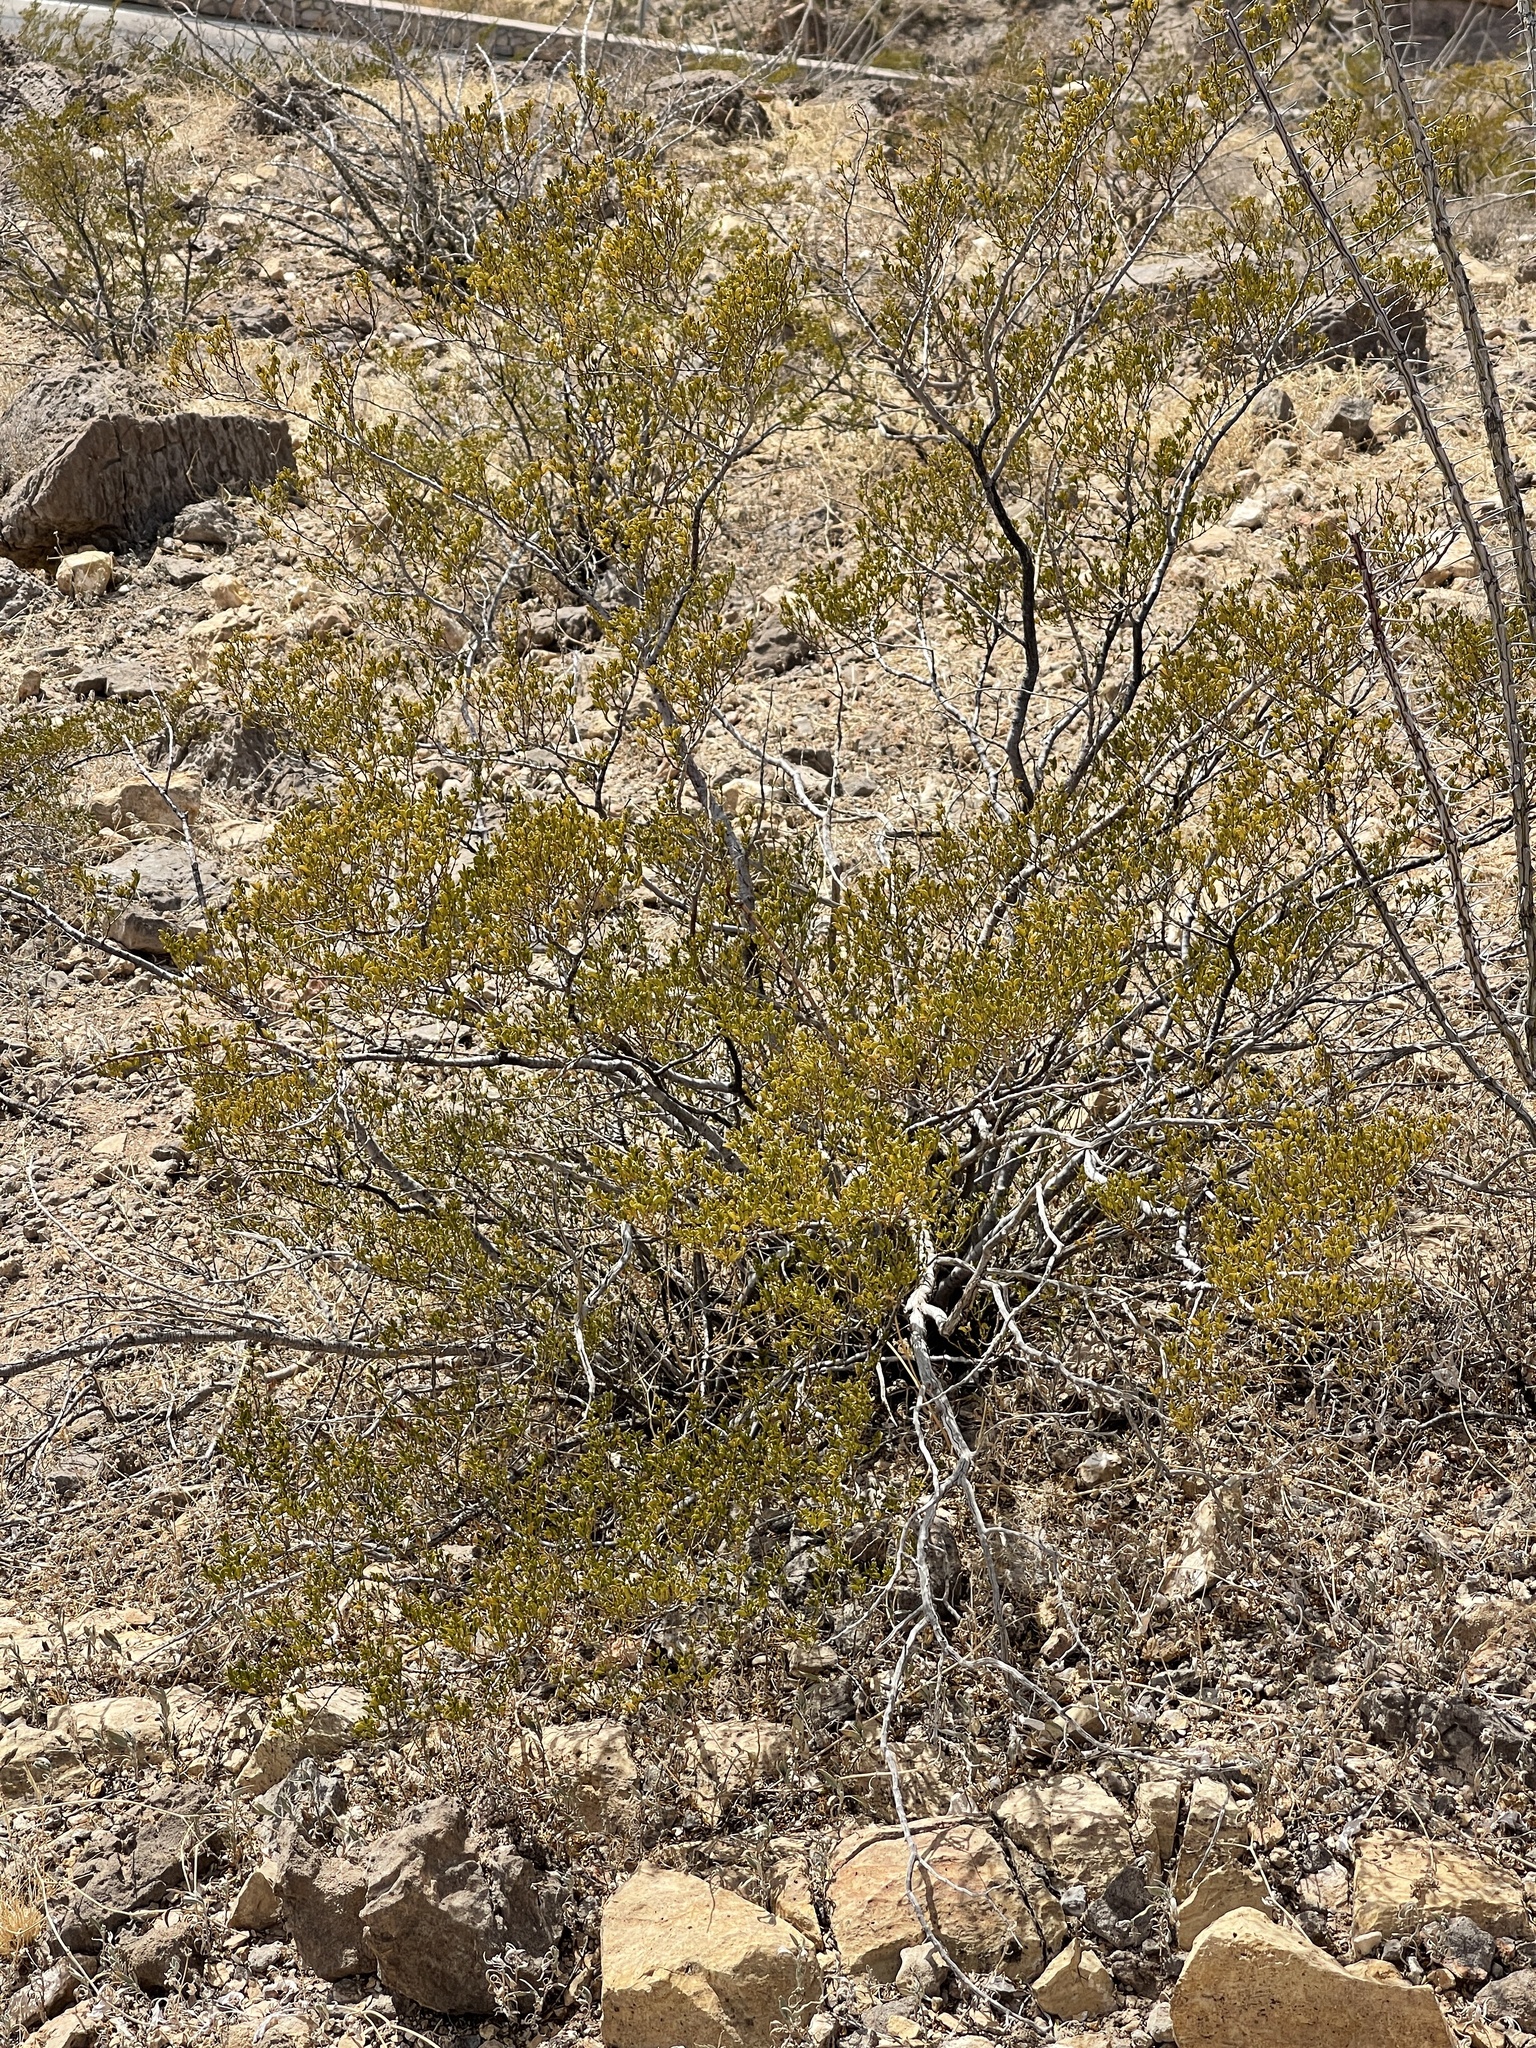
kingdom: Plantae
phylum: Tracheophyta
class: Magnoliopsida
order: Zygophyllales
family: Zygophyllaceae
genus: Larrea
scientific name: Larrea tridentata
